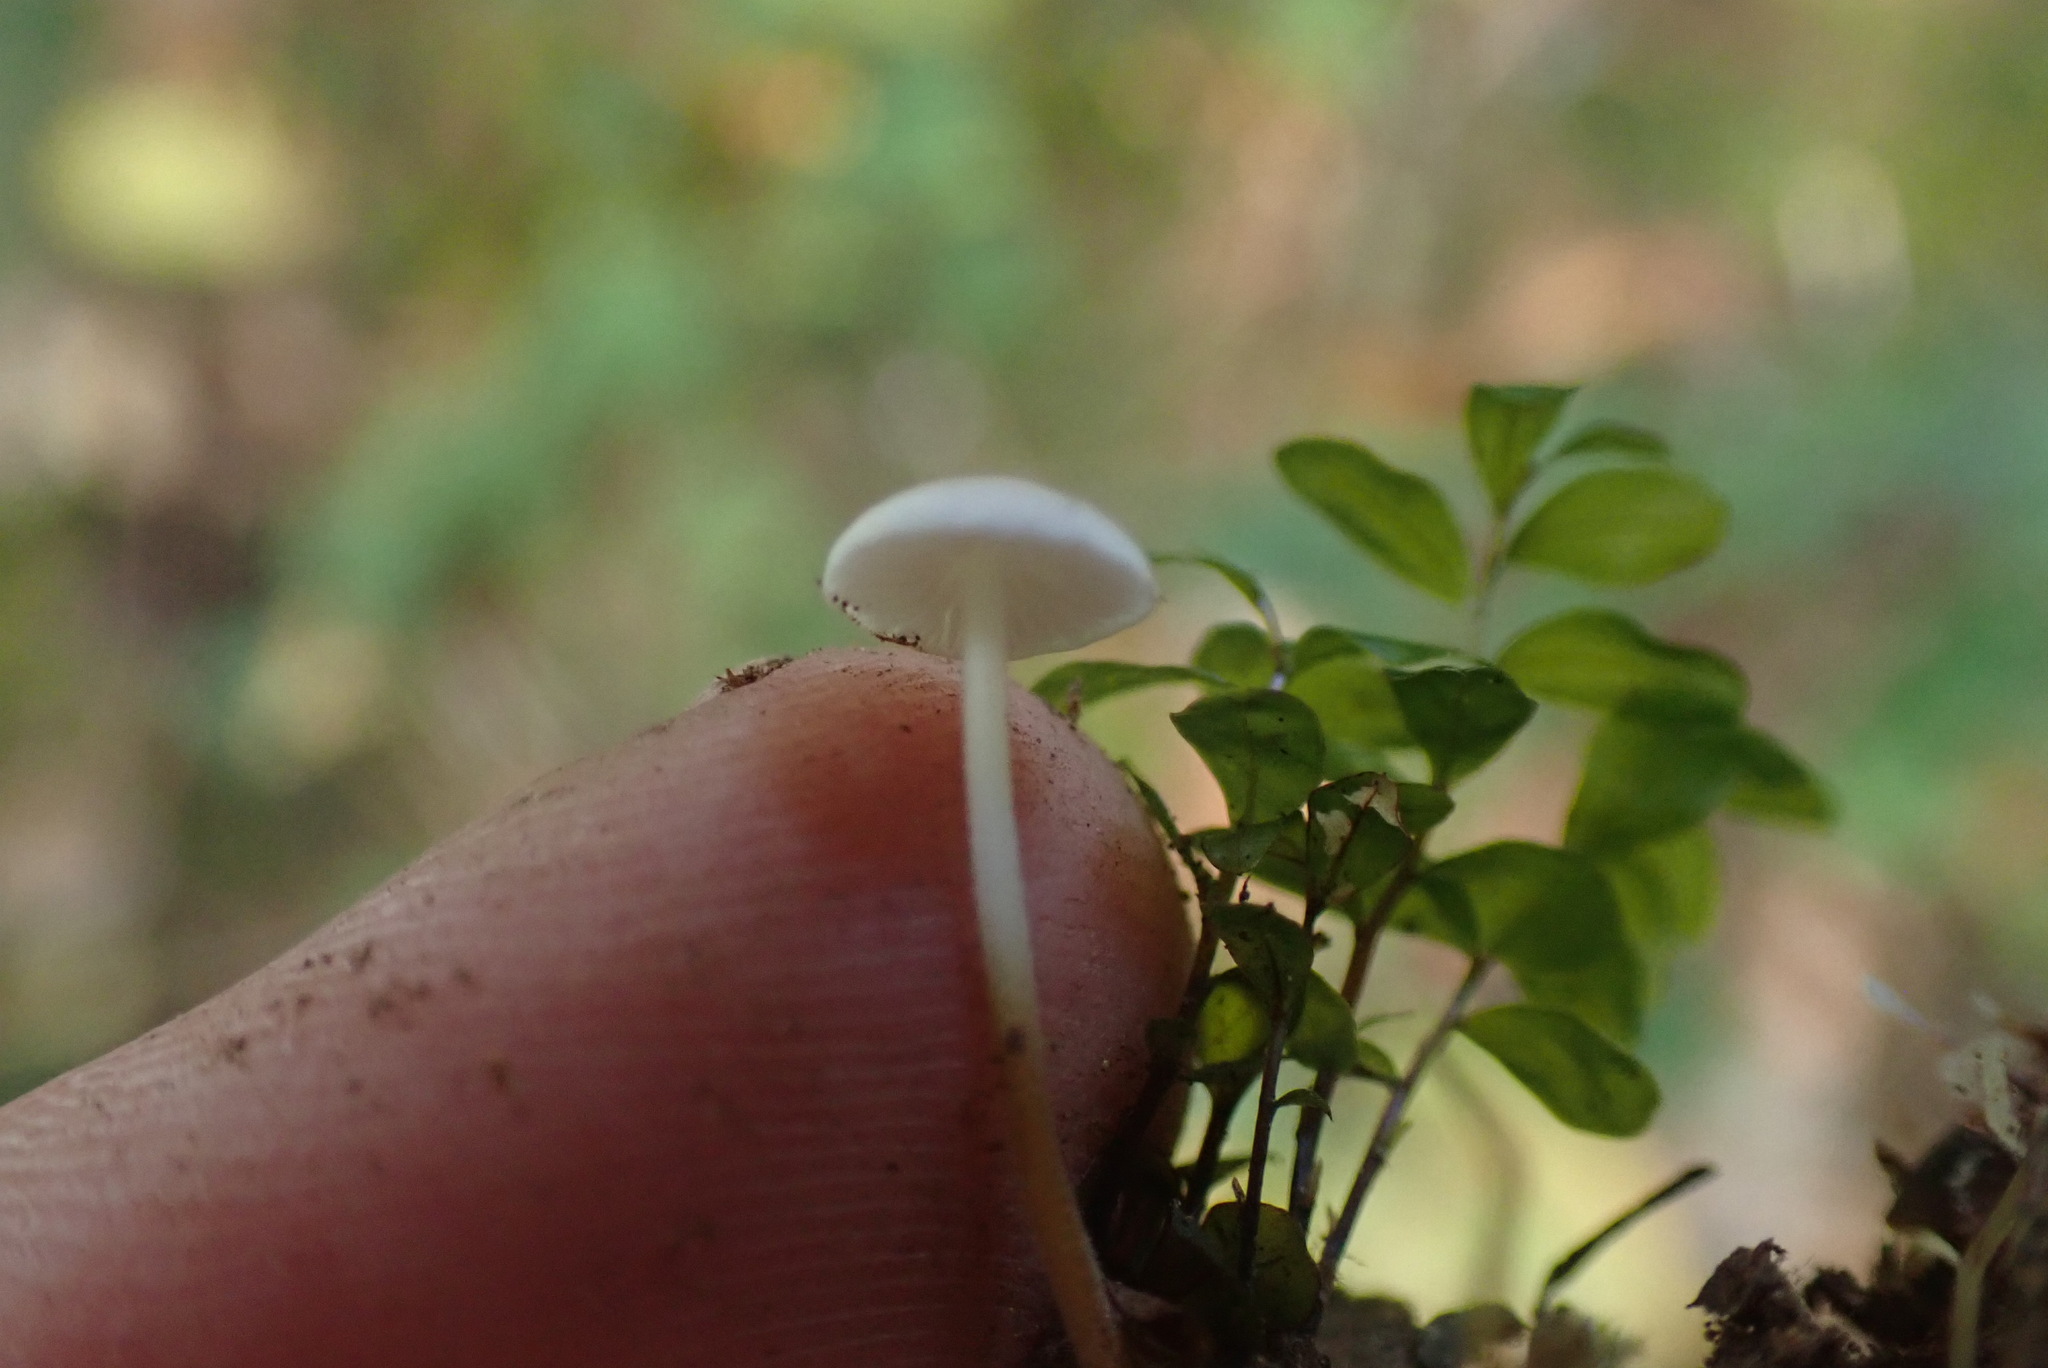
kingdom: Fungi
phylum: Basidiomycota
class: Agaricomycetes
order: Agaricales
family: Physalacriaceae
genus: Strobilurus
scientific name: Strobilurus trullisatus
